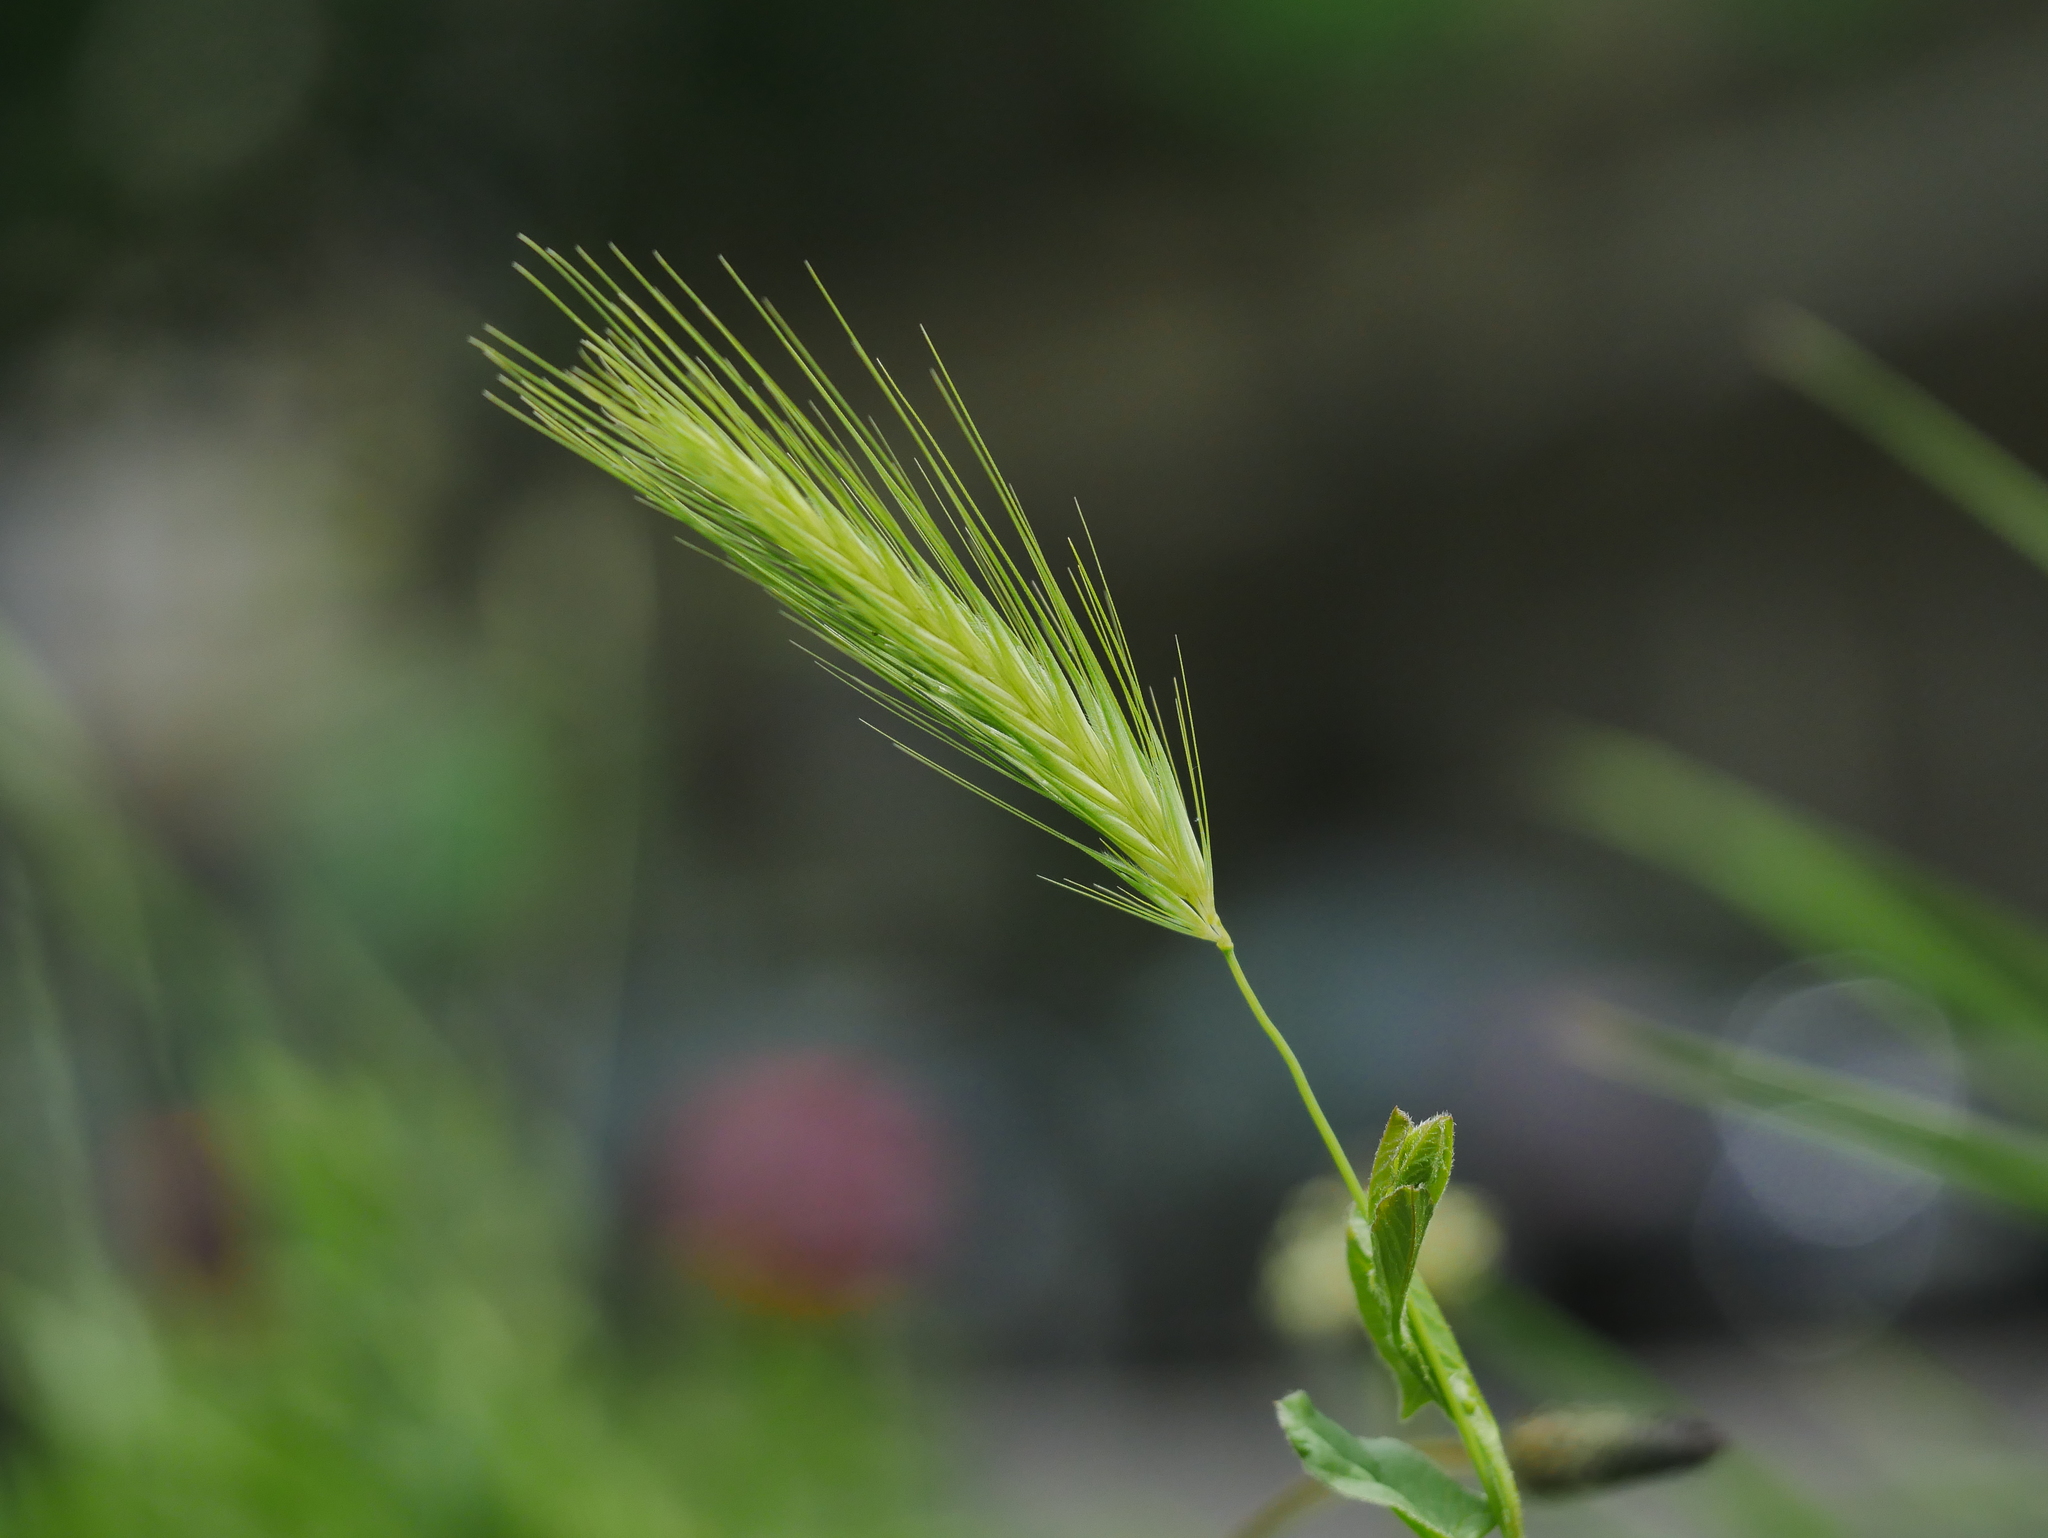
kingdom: Plantae
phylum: Tracheophyta
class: Liliopsida
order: Poales
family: Poaceae
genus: Hordeum
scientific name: Hordeum murinum
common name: Wall barley
